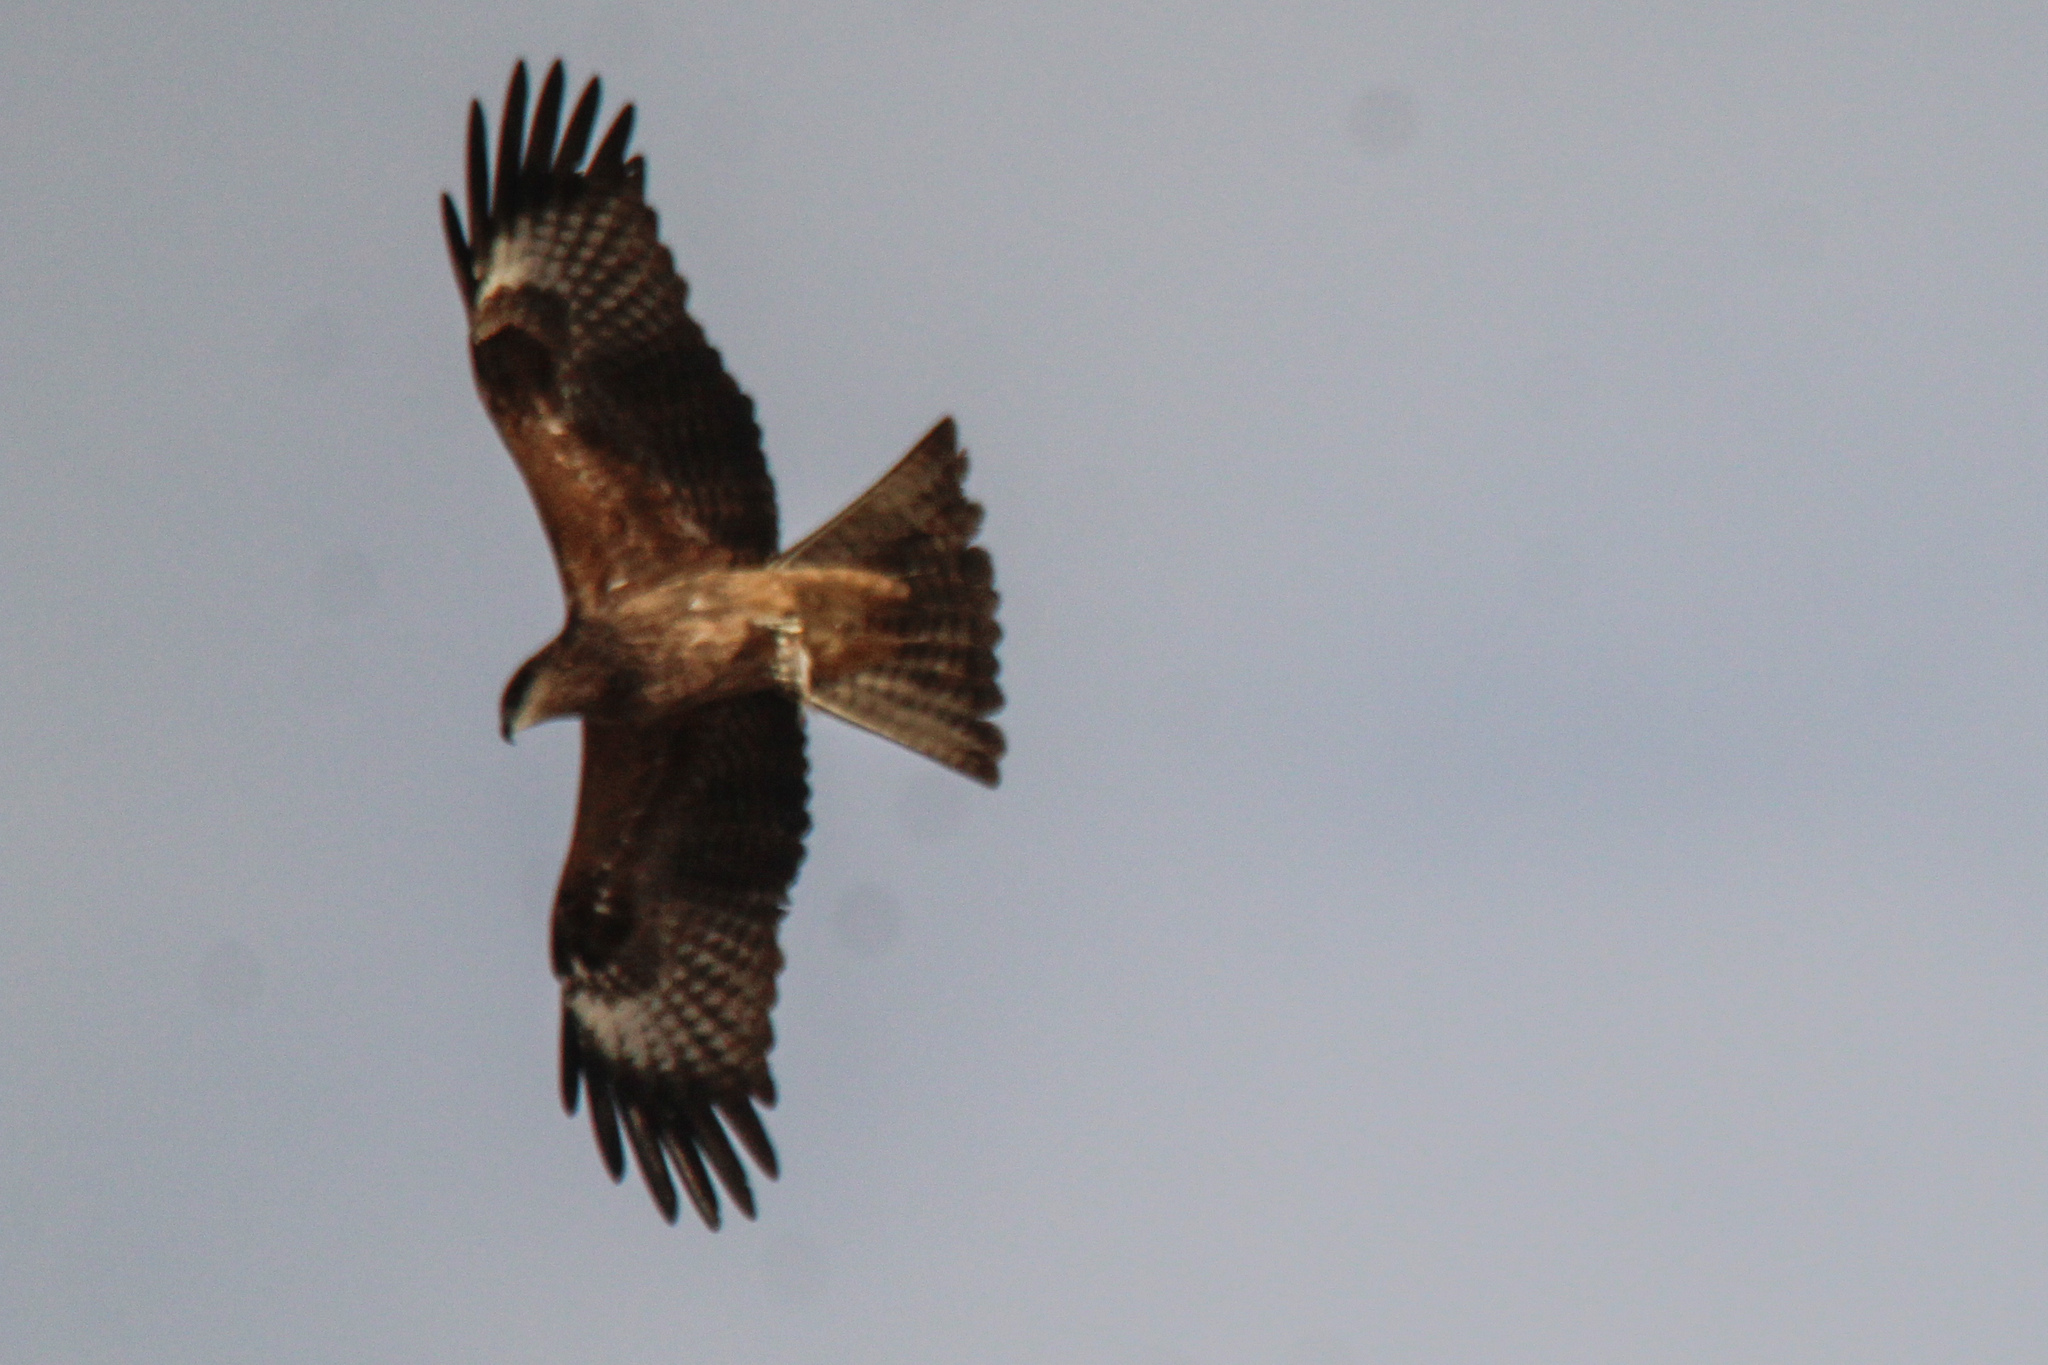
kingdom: Animalia
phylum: Chordata
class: Aves
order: Accipitriformes
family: Accipitridae
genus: Milvus
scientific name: Milvus migrans
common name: Black kite
